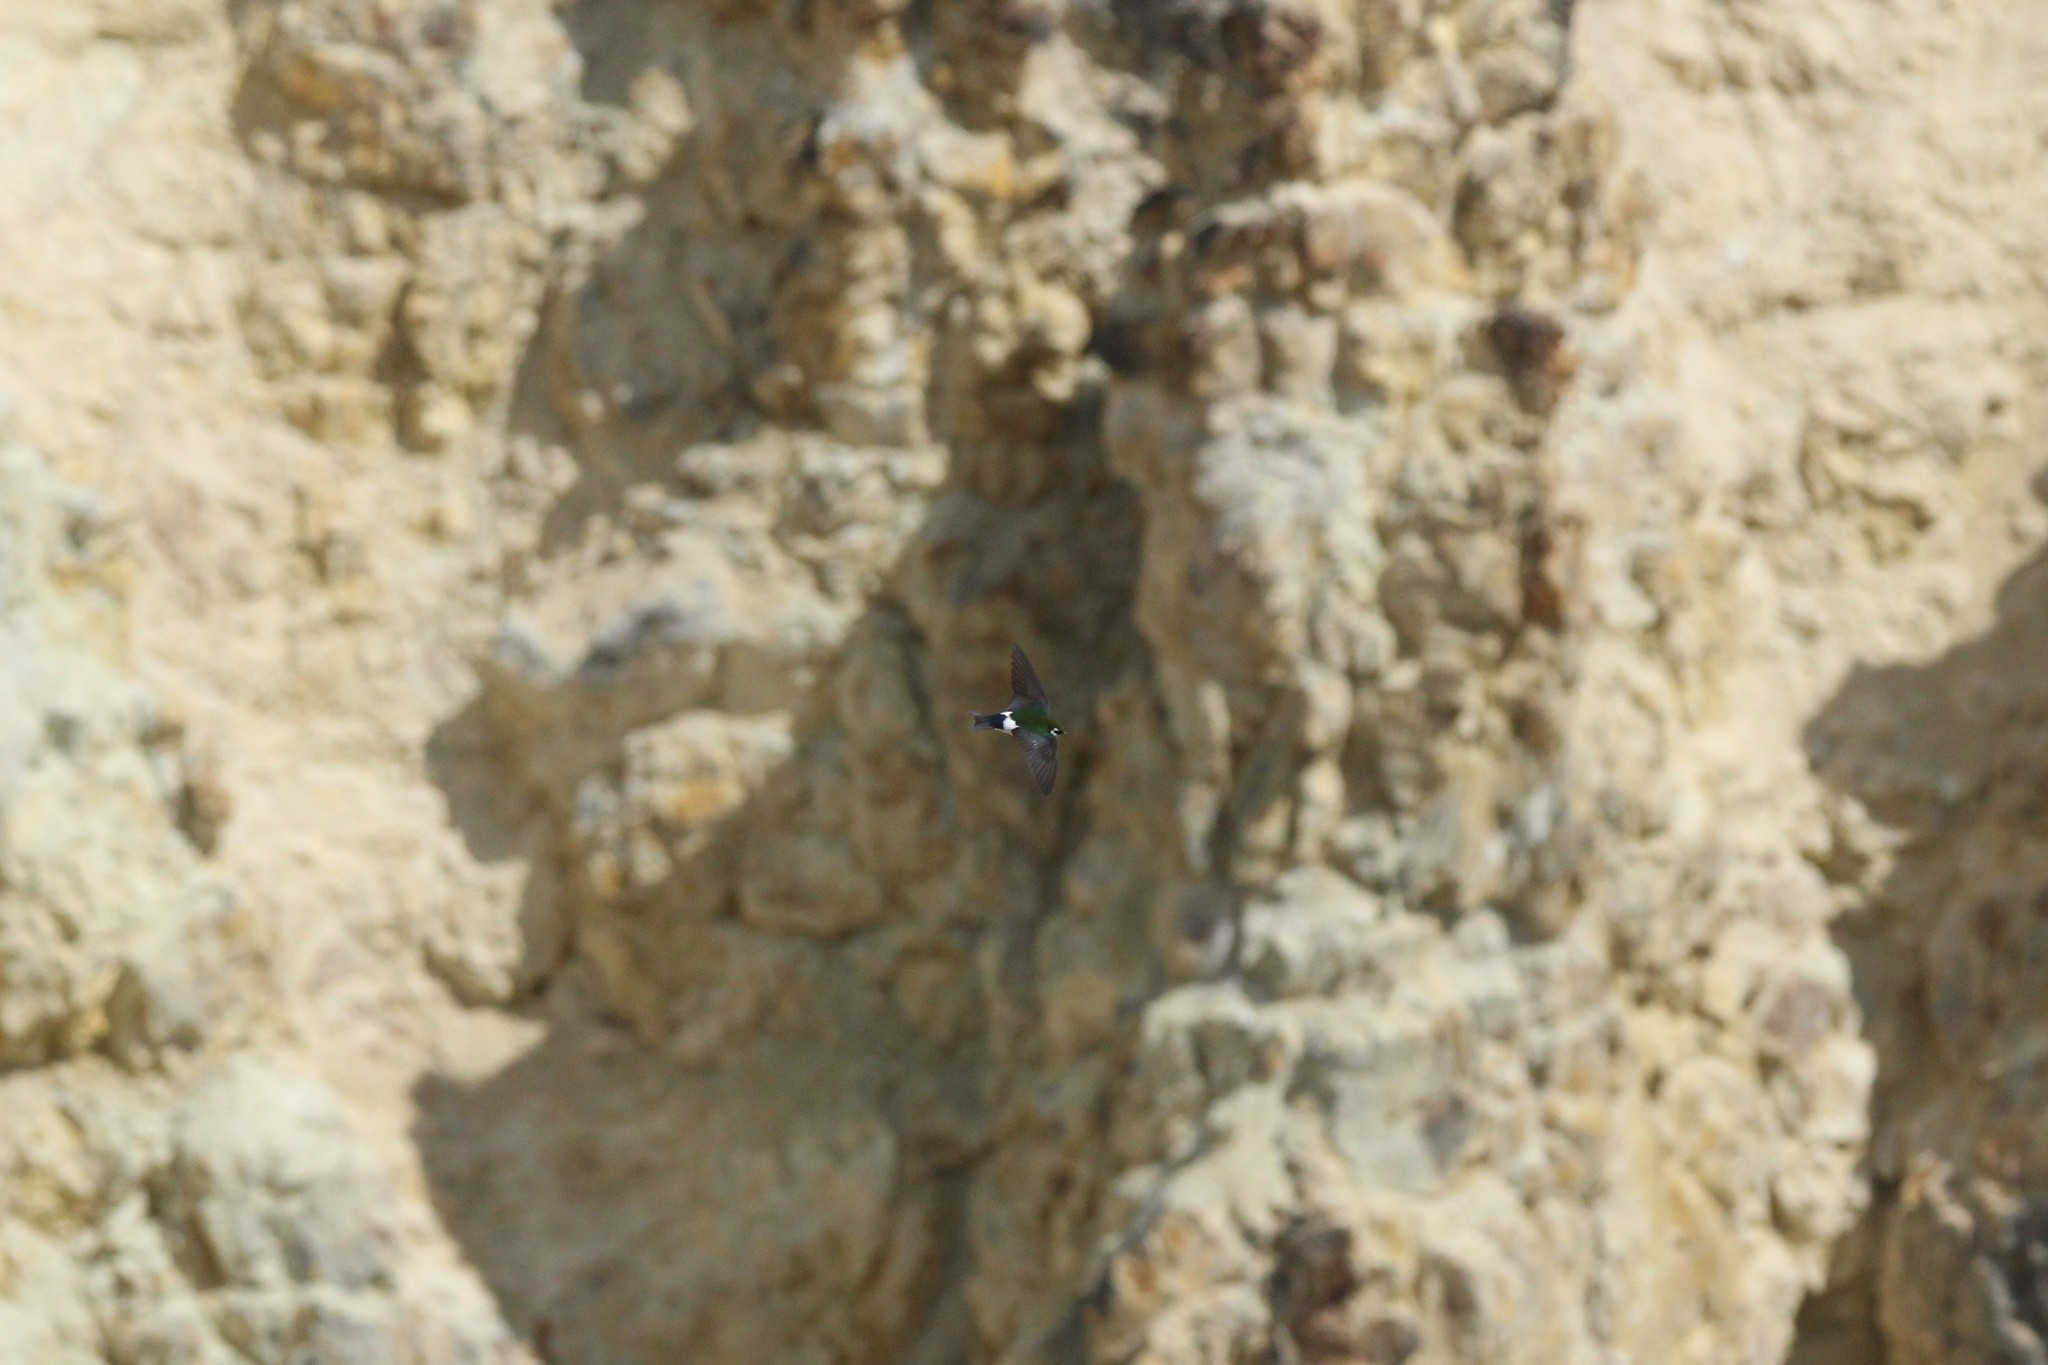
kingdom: Animalia
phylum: Chordata
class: Aves
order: Passeriformes
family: Hirundinidae
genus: Tachycineta
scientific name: Tachycineta thalassina
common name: Violet-green swallow
